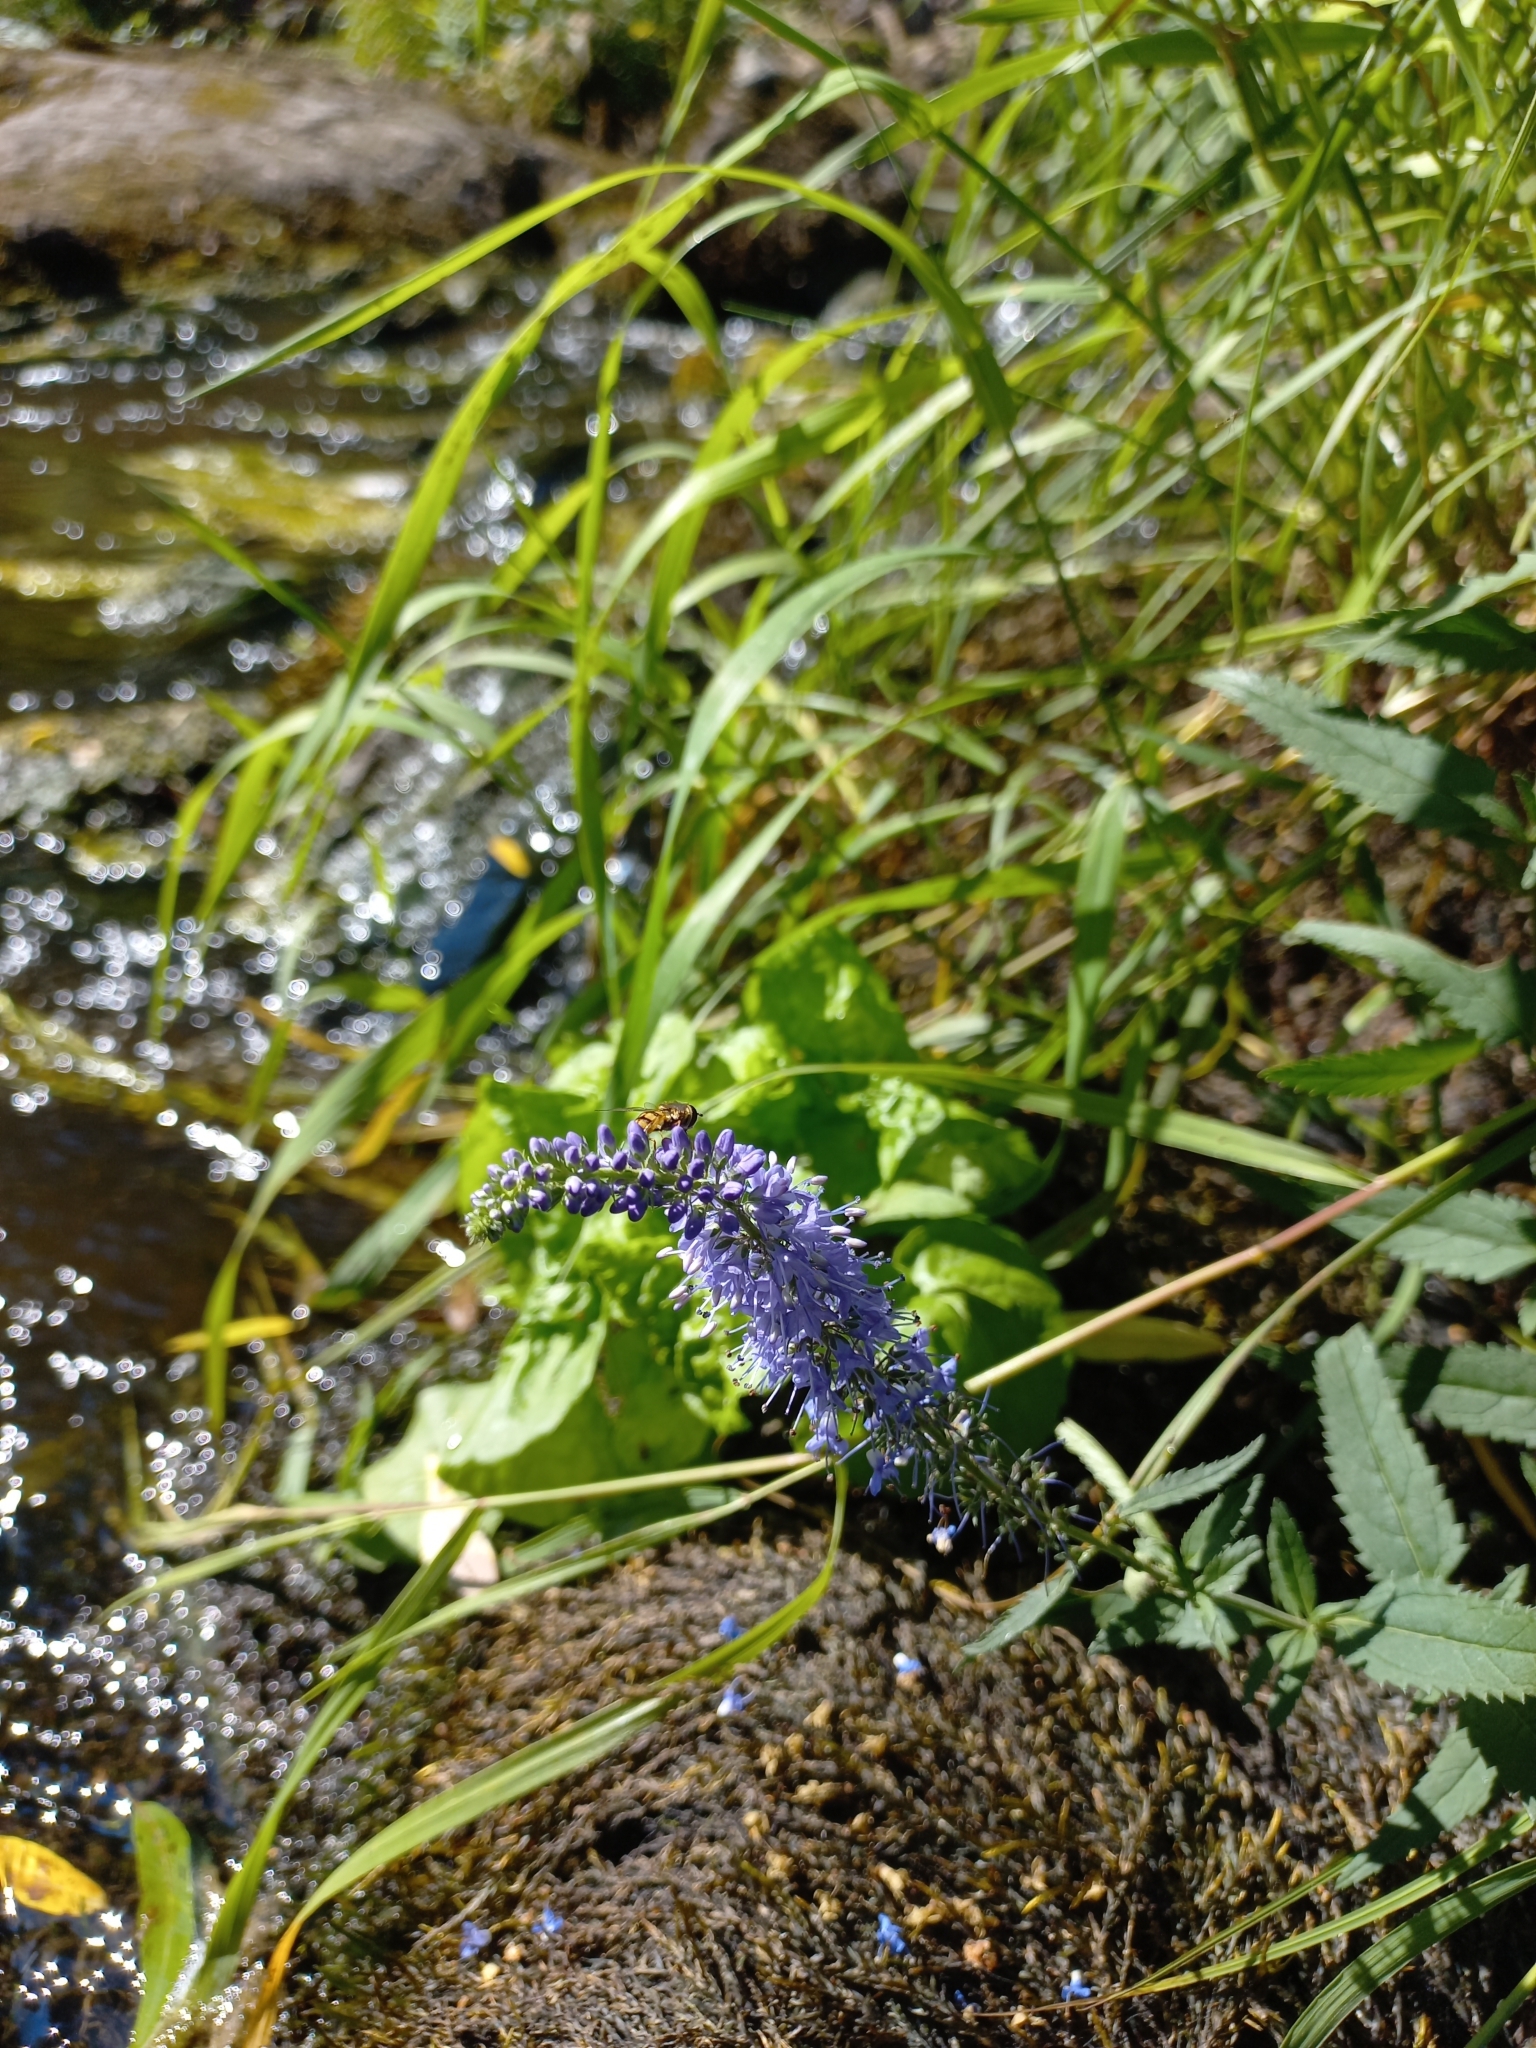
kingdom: Plantae
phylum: Tracheophyta
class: Magnoliopsida
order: Lamiales
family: Plantaginaceae
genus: Veronica
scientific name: Veronica longifolia
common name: Garden speedwell
